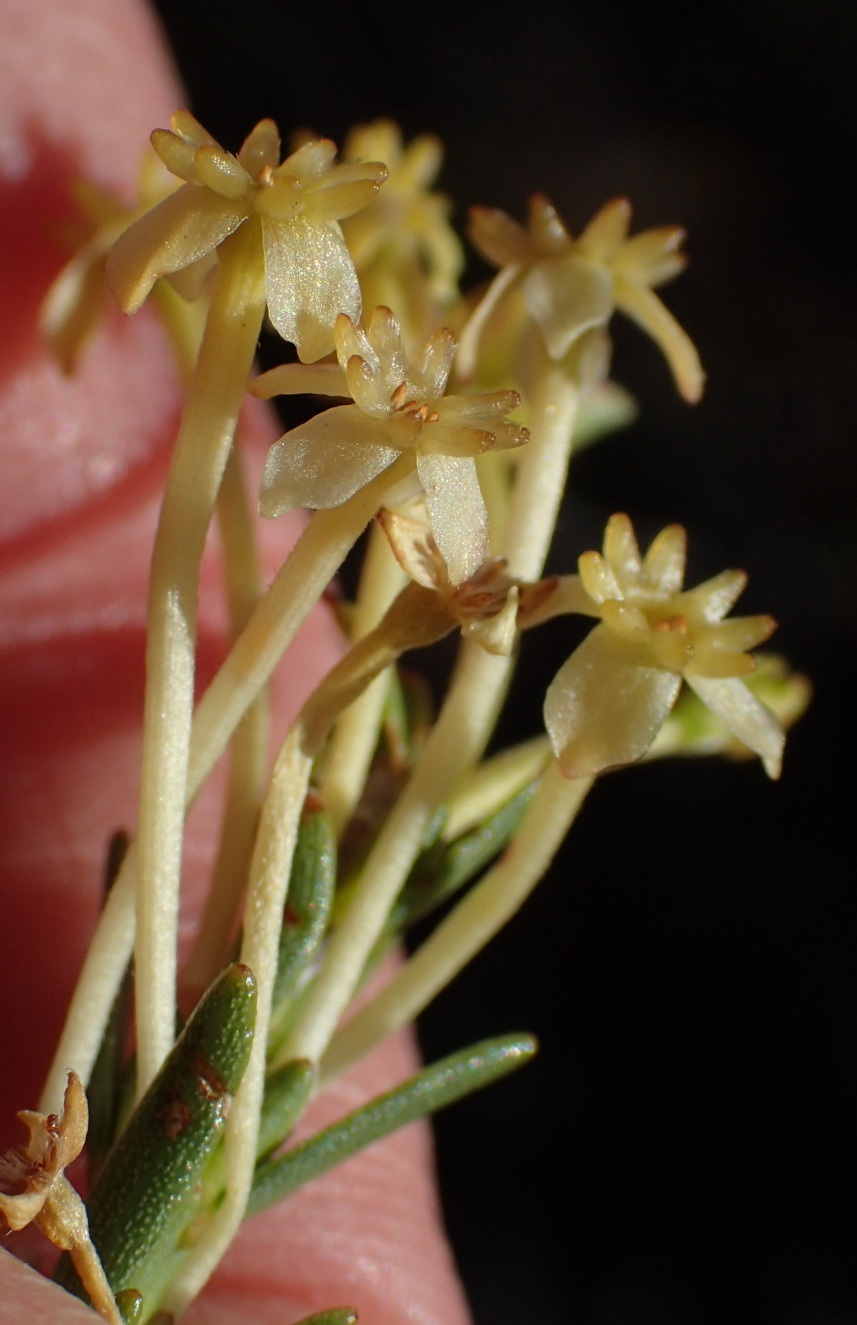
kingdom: Plantae
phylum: Tracheophyta
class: Magnoliopsida
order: Malvales
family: Thymelaeaceae
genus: Struthiola
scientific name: Struthiola eckloniana
